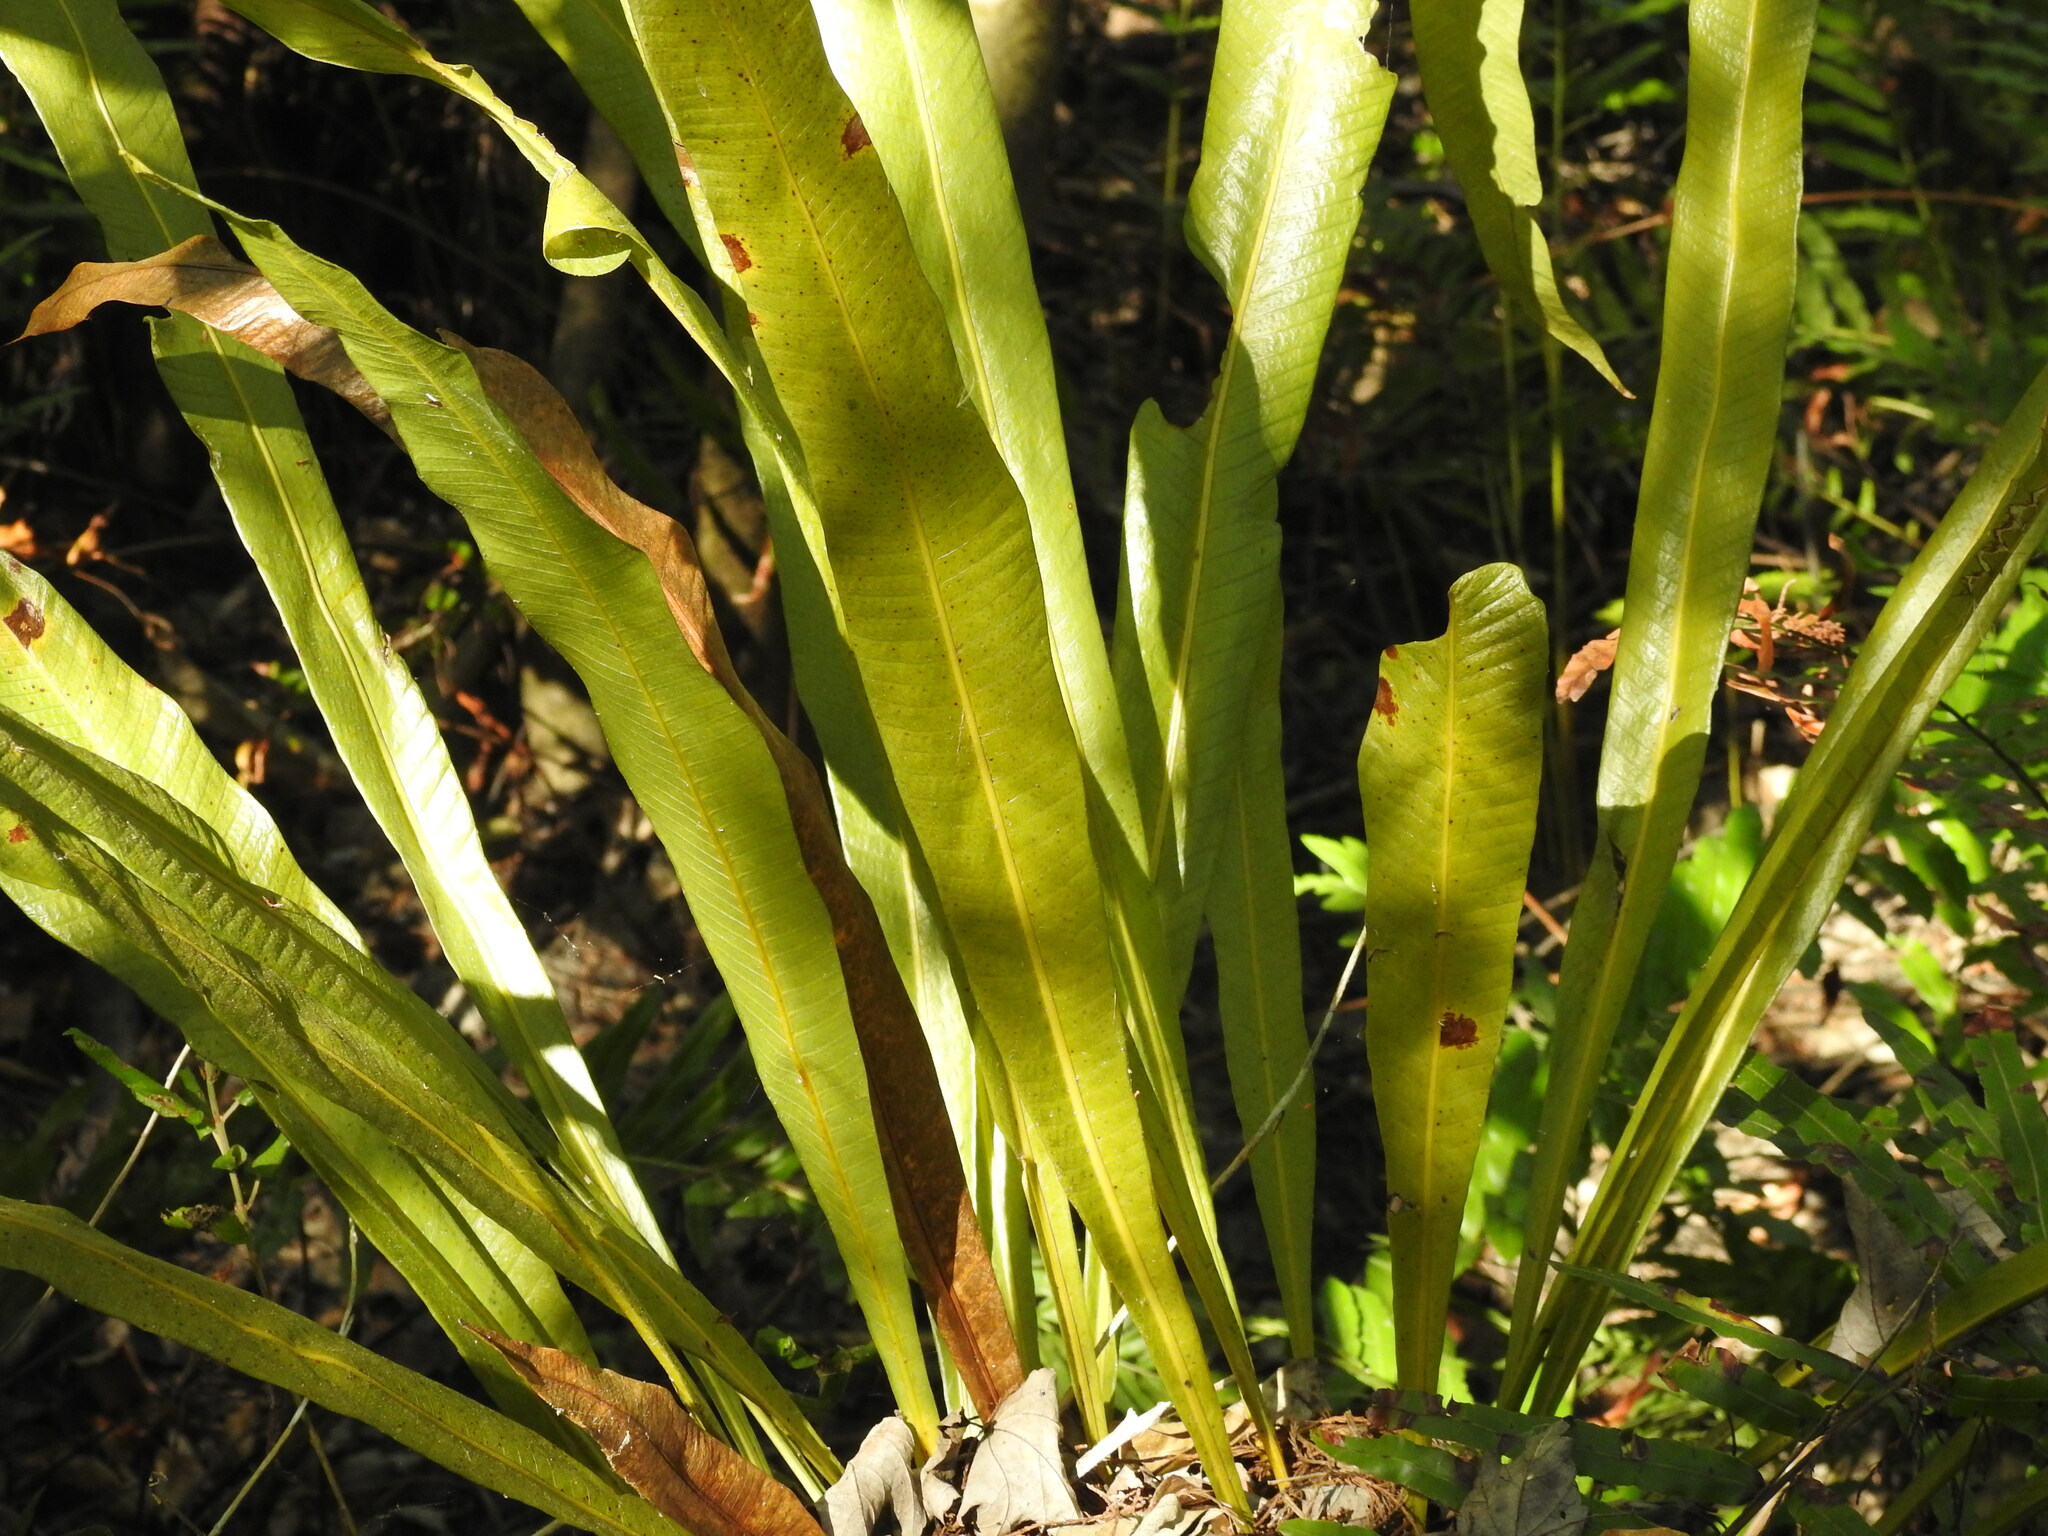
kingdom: Plantae
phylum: Tracheophyta
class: Polypodiopsida
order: Polypodiales
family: Polypodiaceae
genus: Campyloneurum
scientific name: Campyloneurum phyllitidis
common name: Cow-tongue fern
